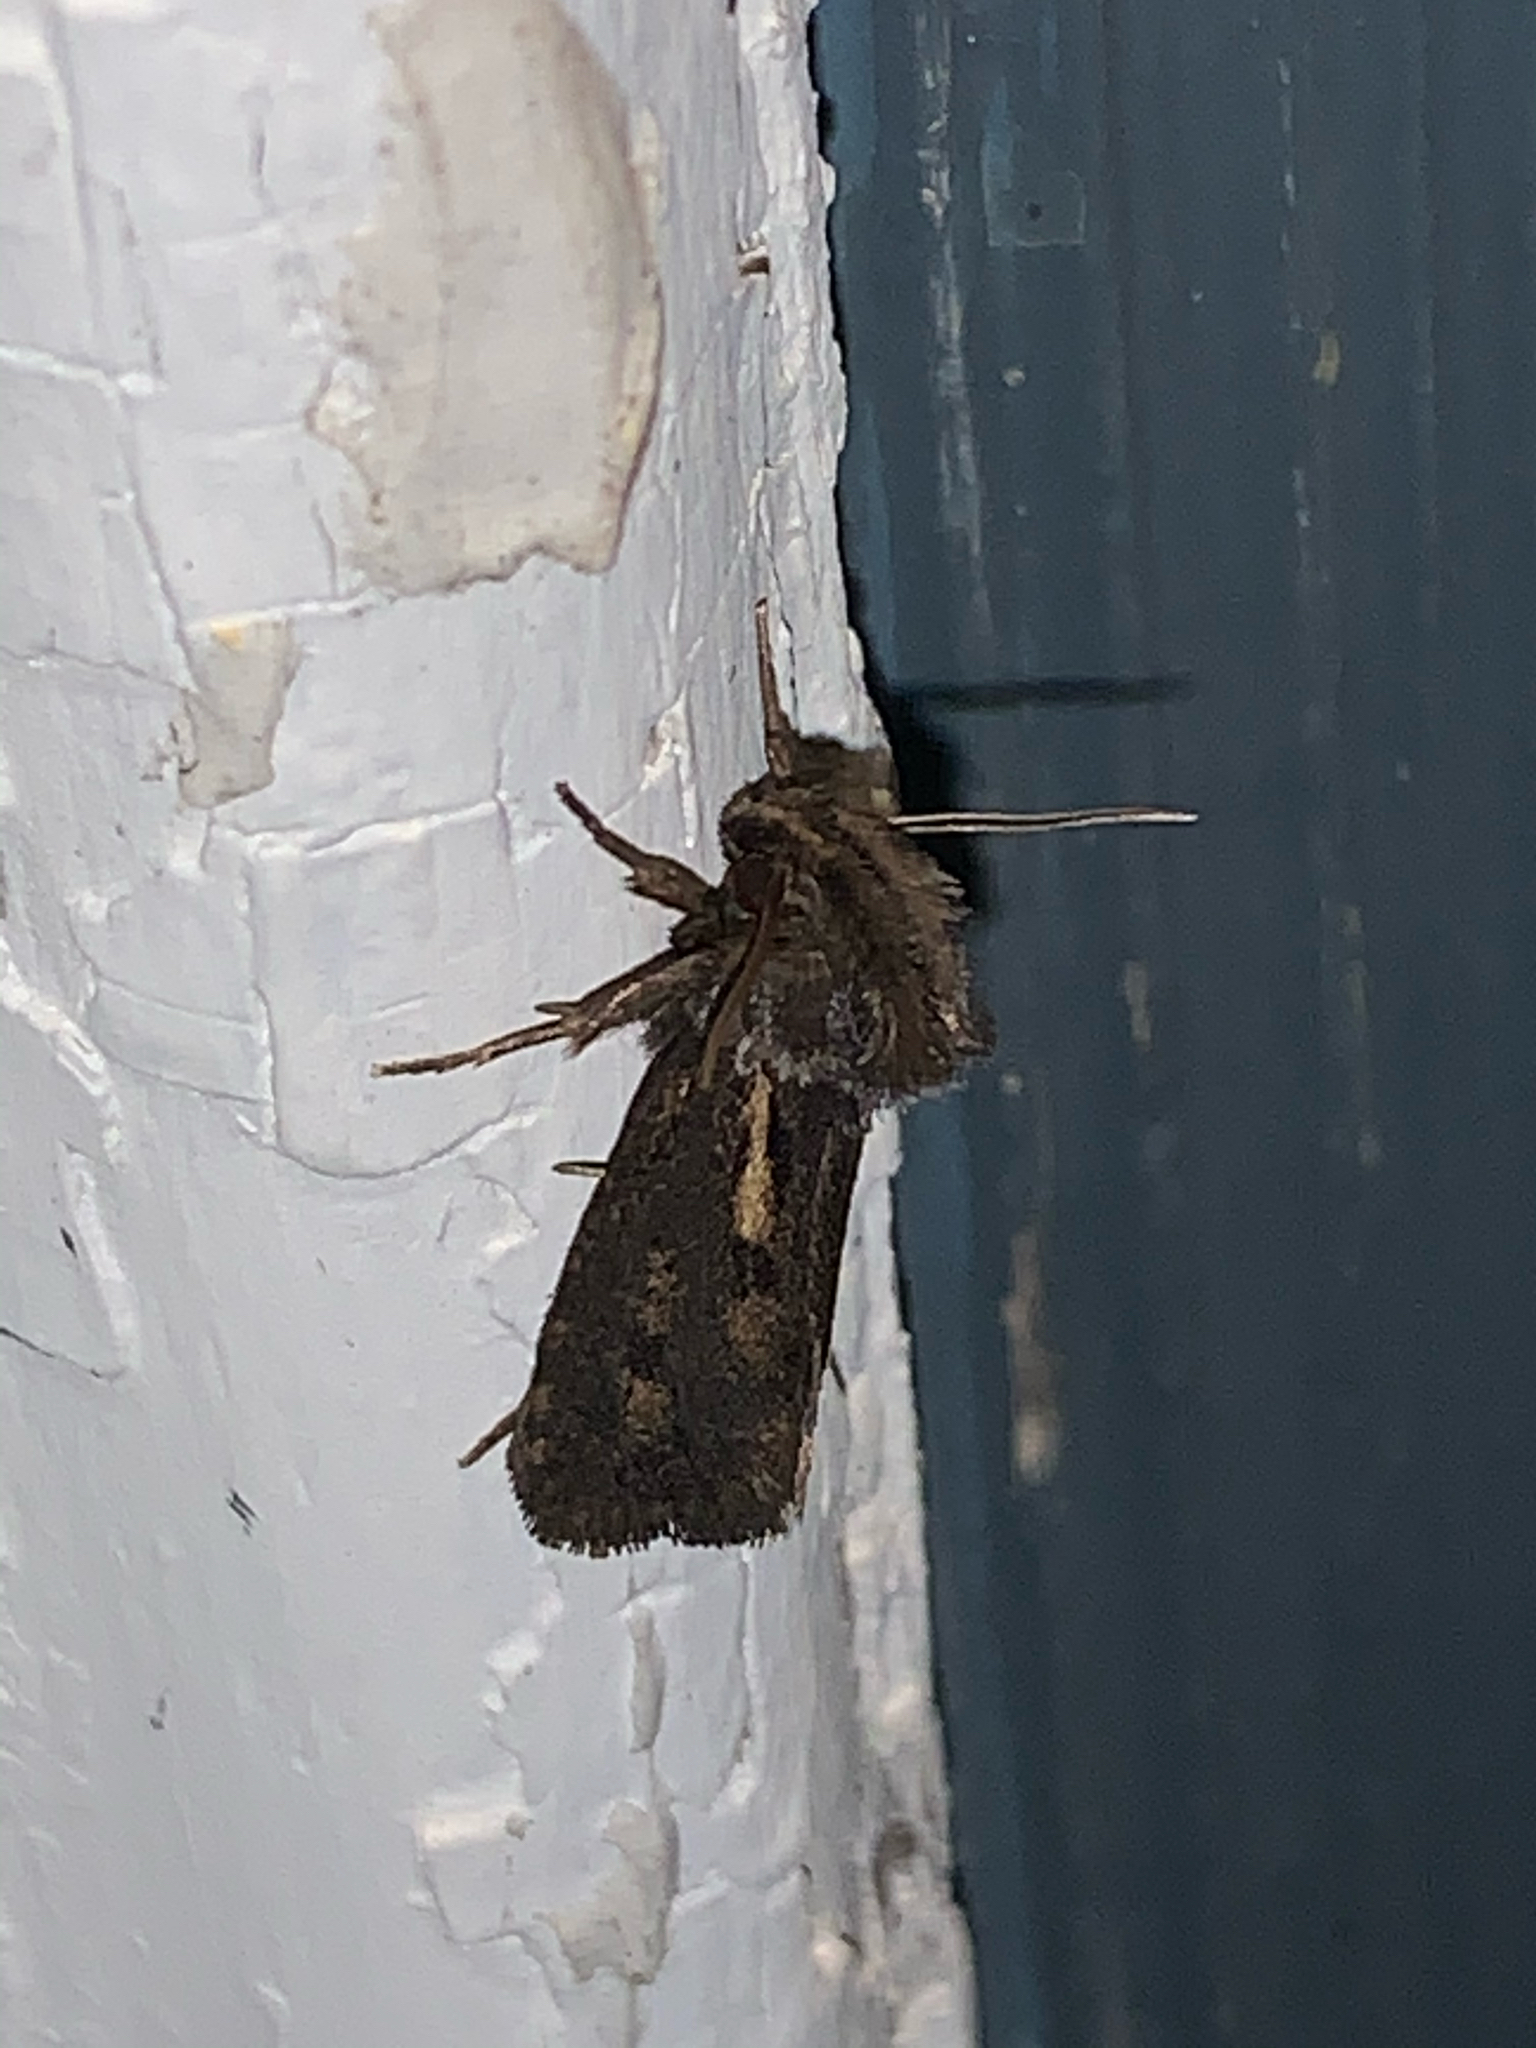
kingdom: Animalia
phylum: Arthropoda
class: Insecta
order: Lepidoptera
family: Tineidae
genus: Acrolophus
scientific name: Acrolophus popeanella
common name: Clemens' grass tubeworm moth
